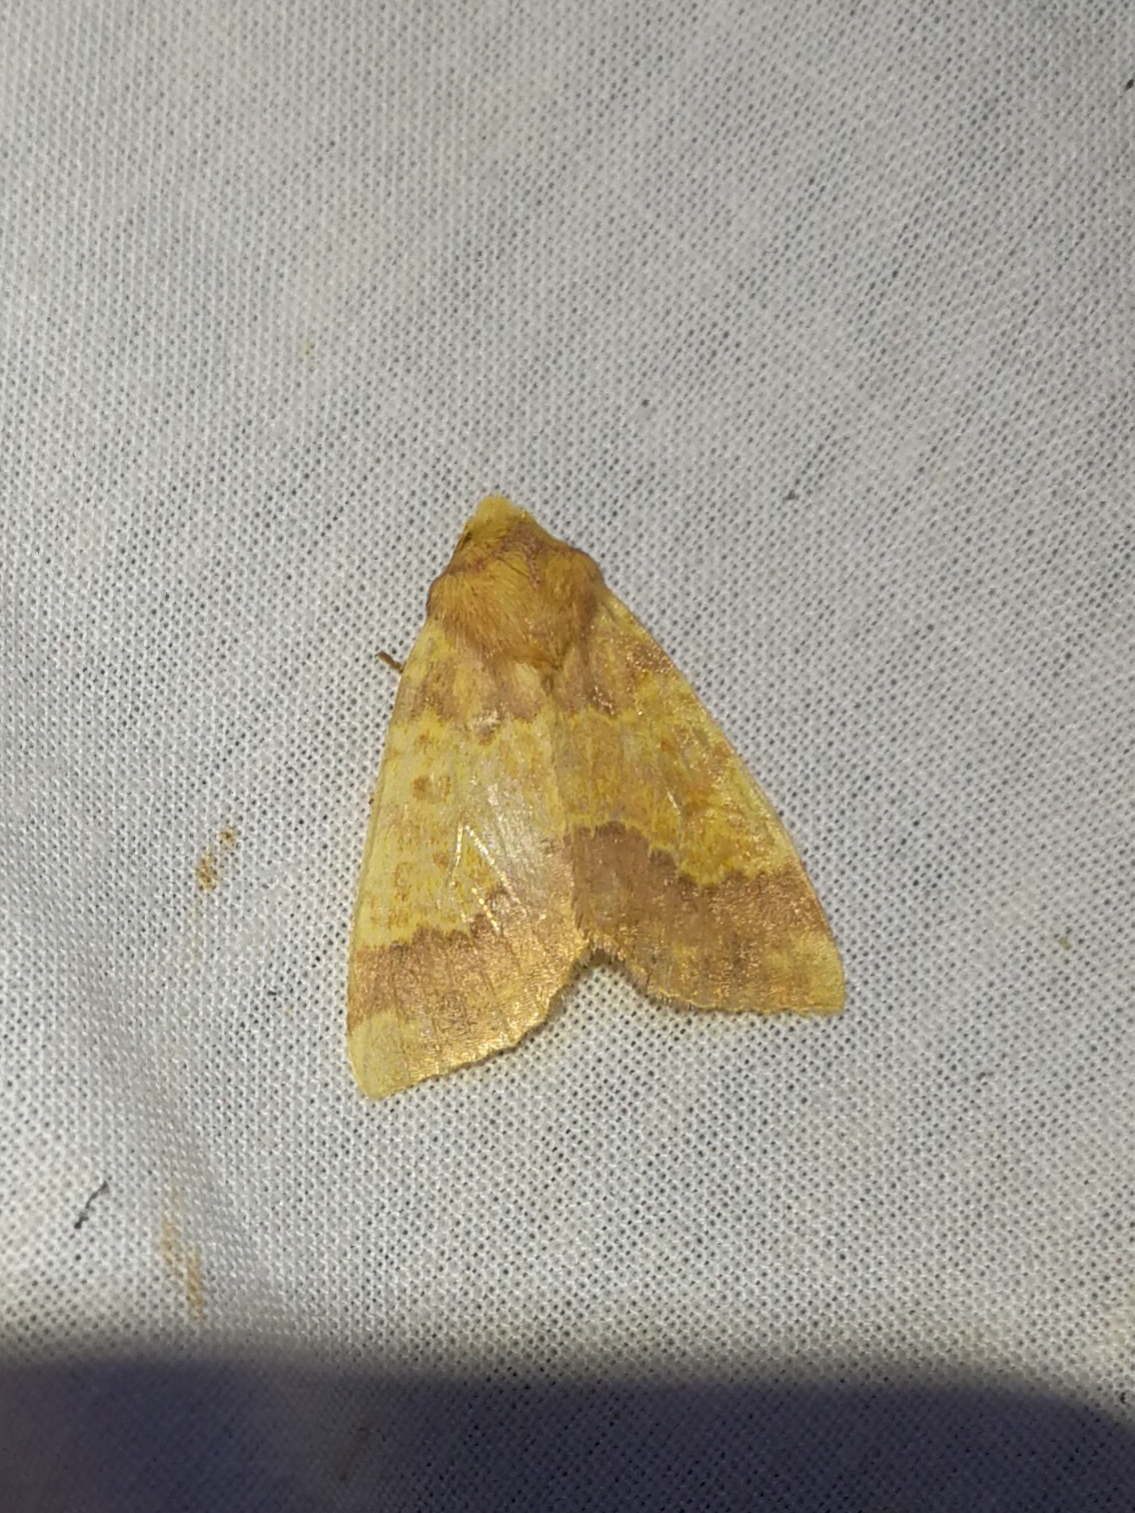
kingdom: Animalia
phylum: Arthropoda
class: Insecta
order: Lepidoptera
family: Noctuidae
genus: Tiliacea
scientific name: Tiliacea aurago
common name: Barred sallow
